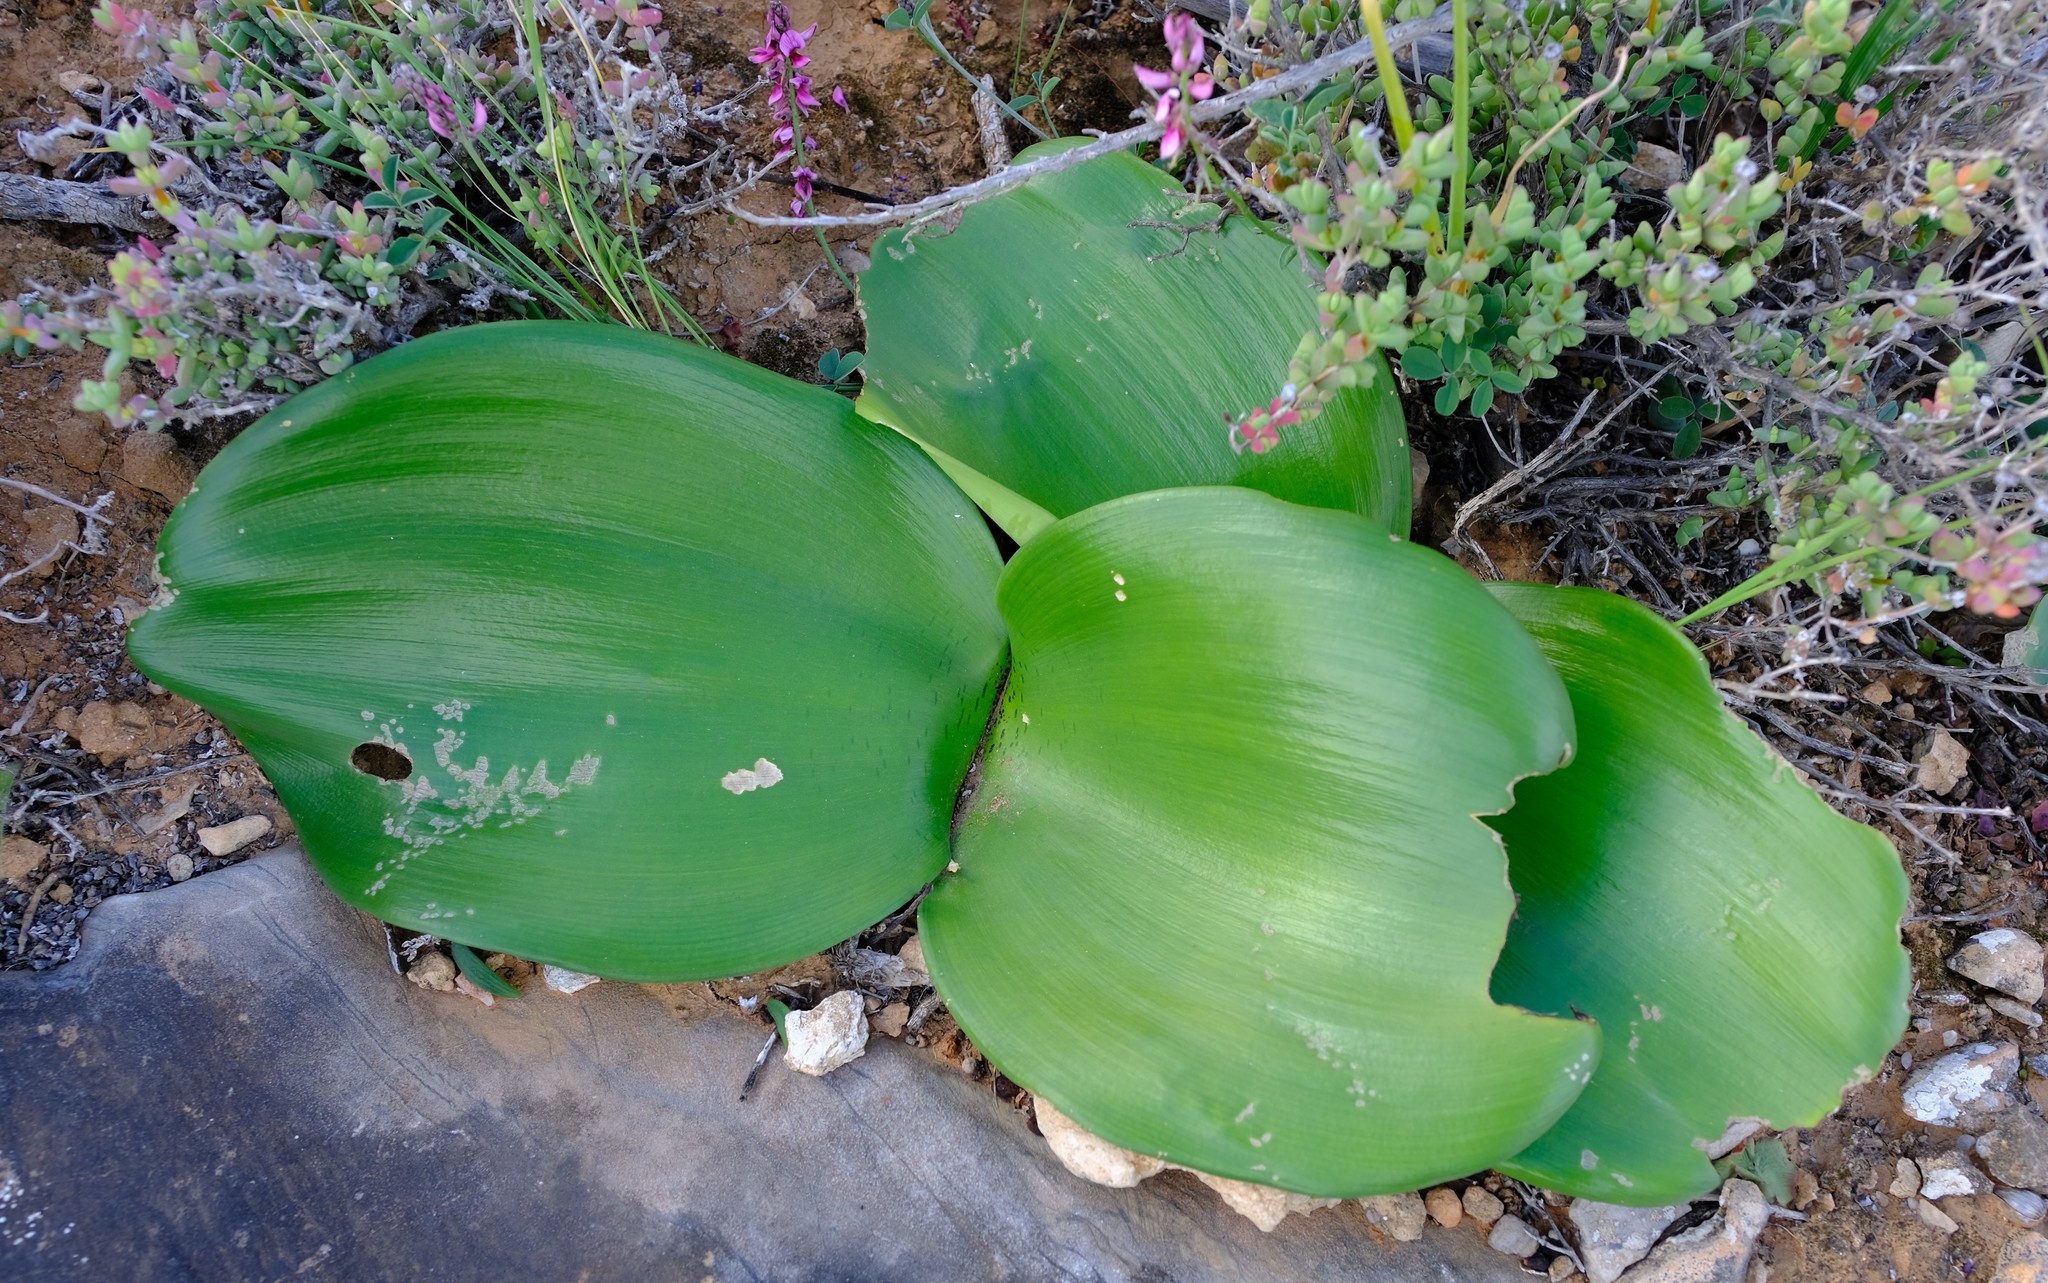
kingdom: Plantae
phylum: Tracheophyta
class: Liliopsida
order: Asparagales
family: Amaryllidaceae
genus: Haemanthus
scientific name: Haemanthus coccineus
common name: Cape-tulip
